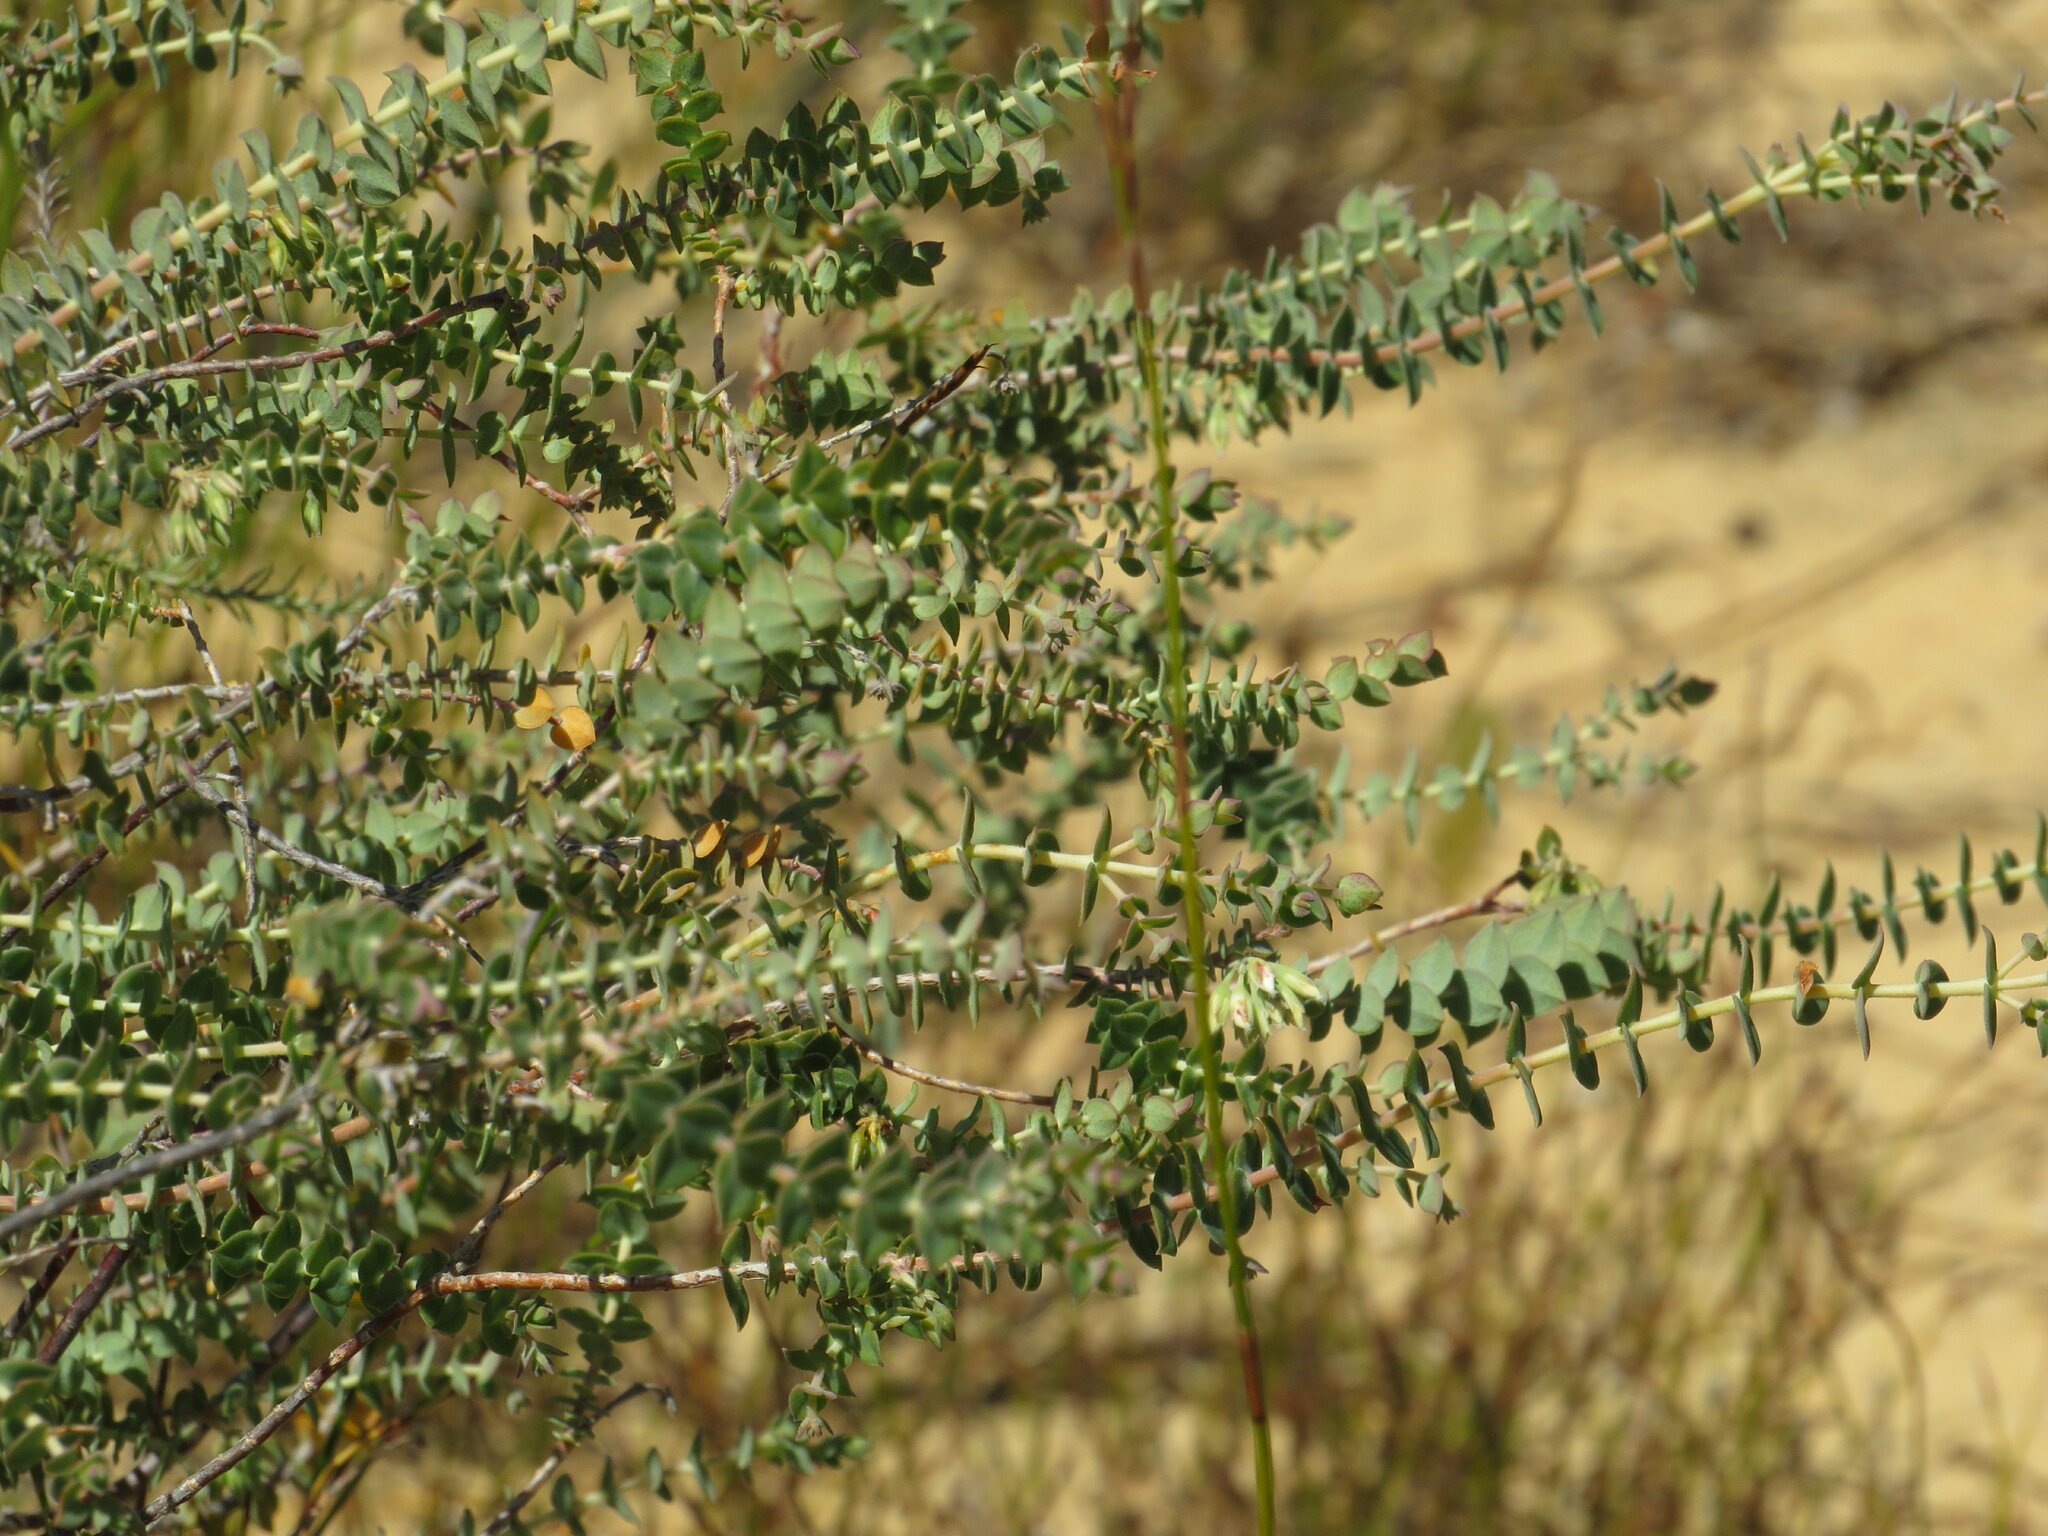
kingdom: Plantae
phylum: Tracheophyta
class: Magnoliopsida
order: Sapindales
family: Rutaceae
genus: Macrostylis
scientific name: Macrostylis barbigera
